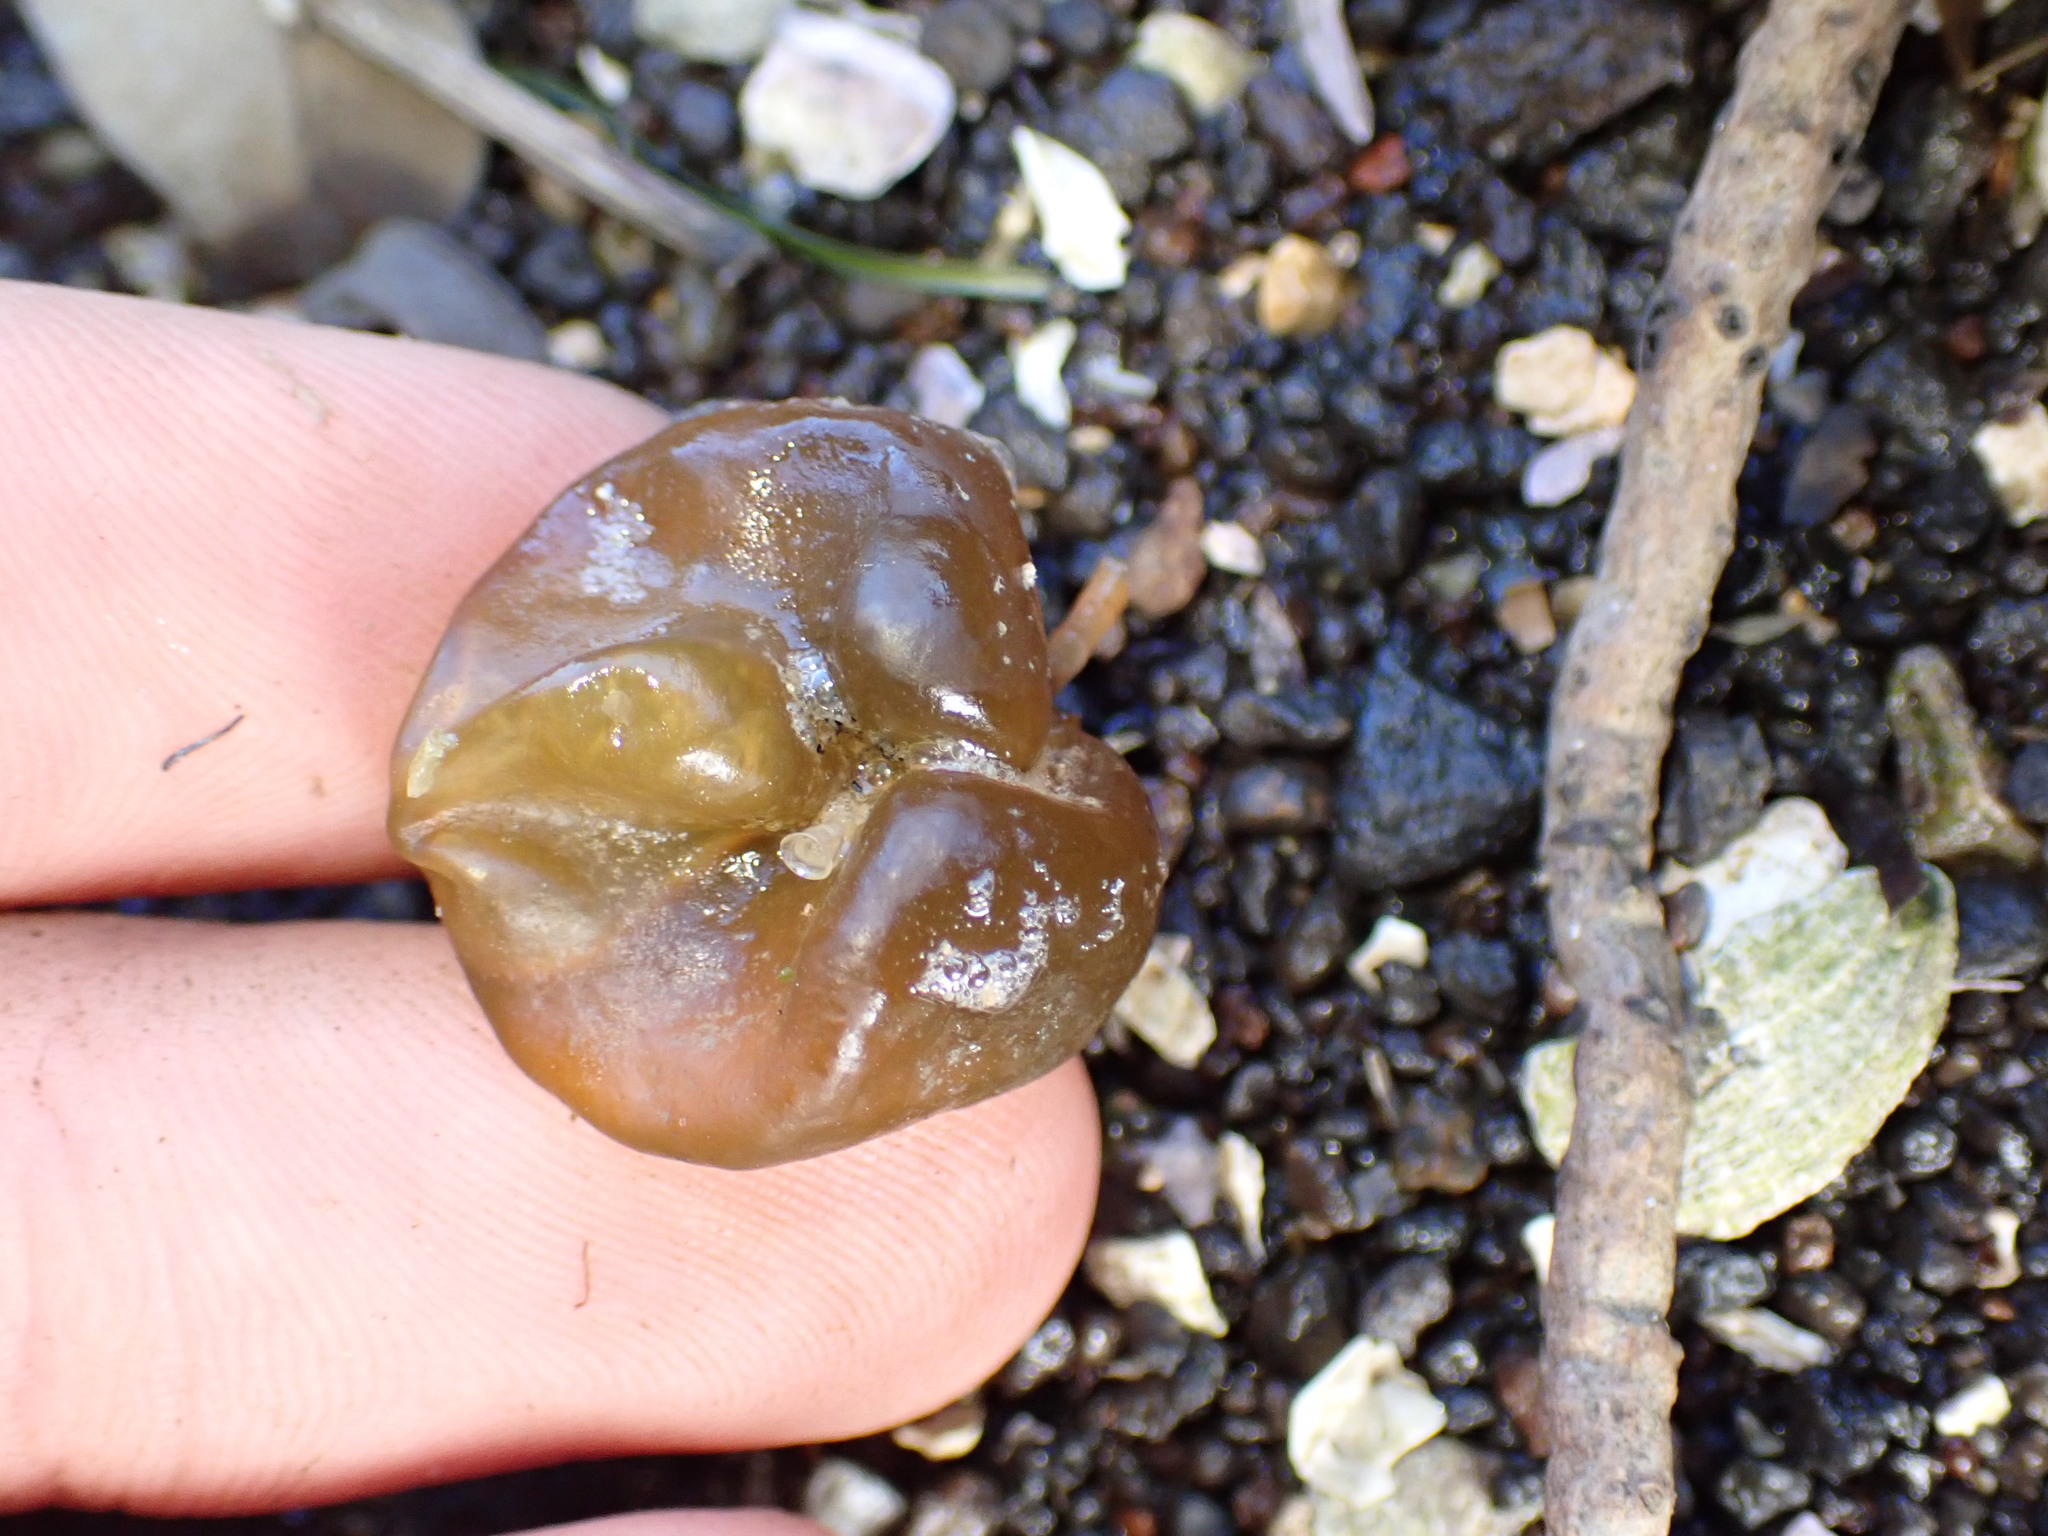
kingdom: Chromista
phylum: Ochrophyta
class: Phaeophyceae
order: Scytosiphonales
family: Scytosiphonaceae
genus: Colpomenia
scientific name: Colpomenia peregrina
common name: Oyster thief
